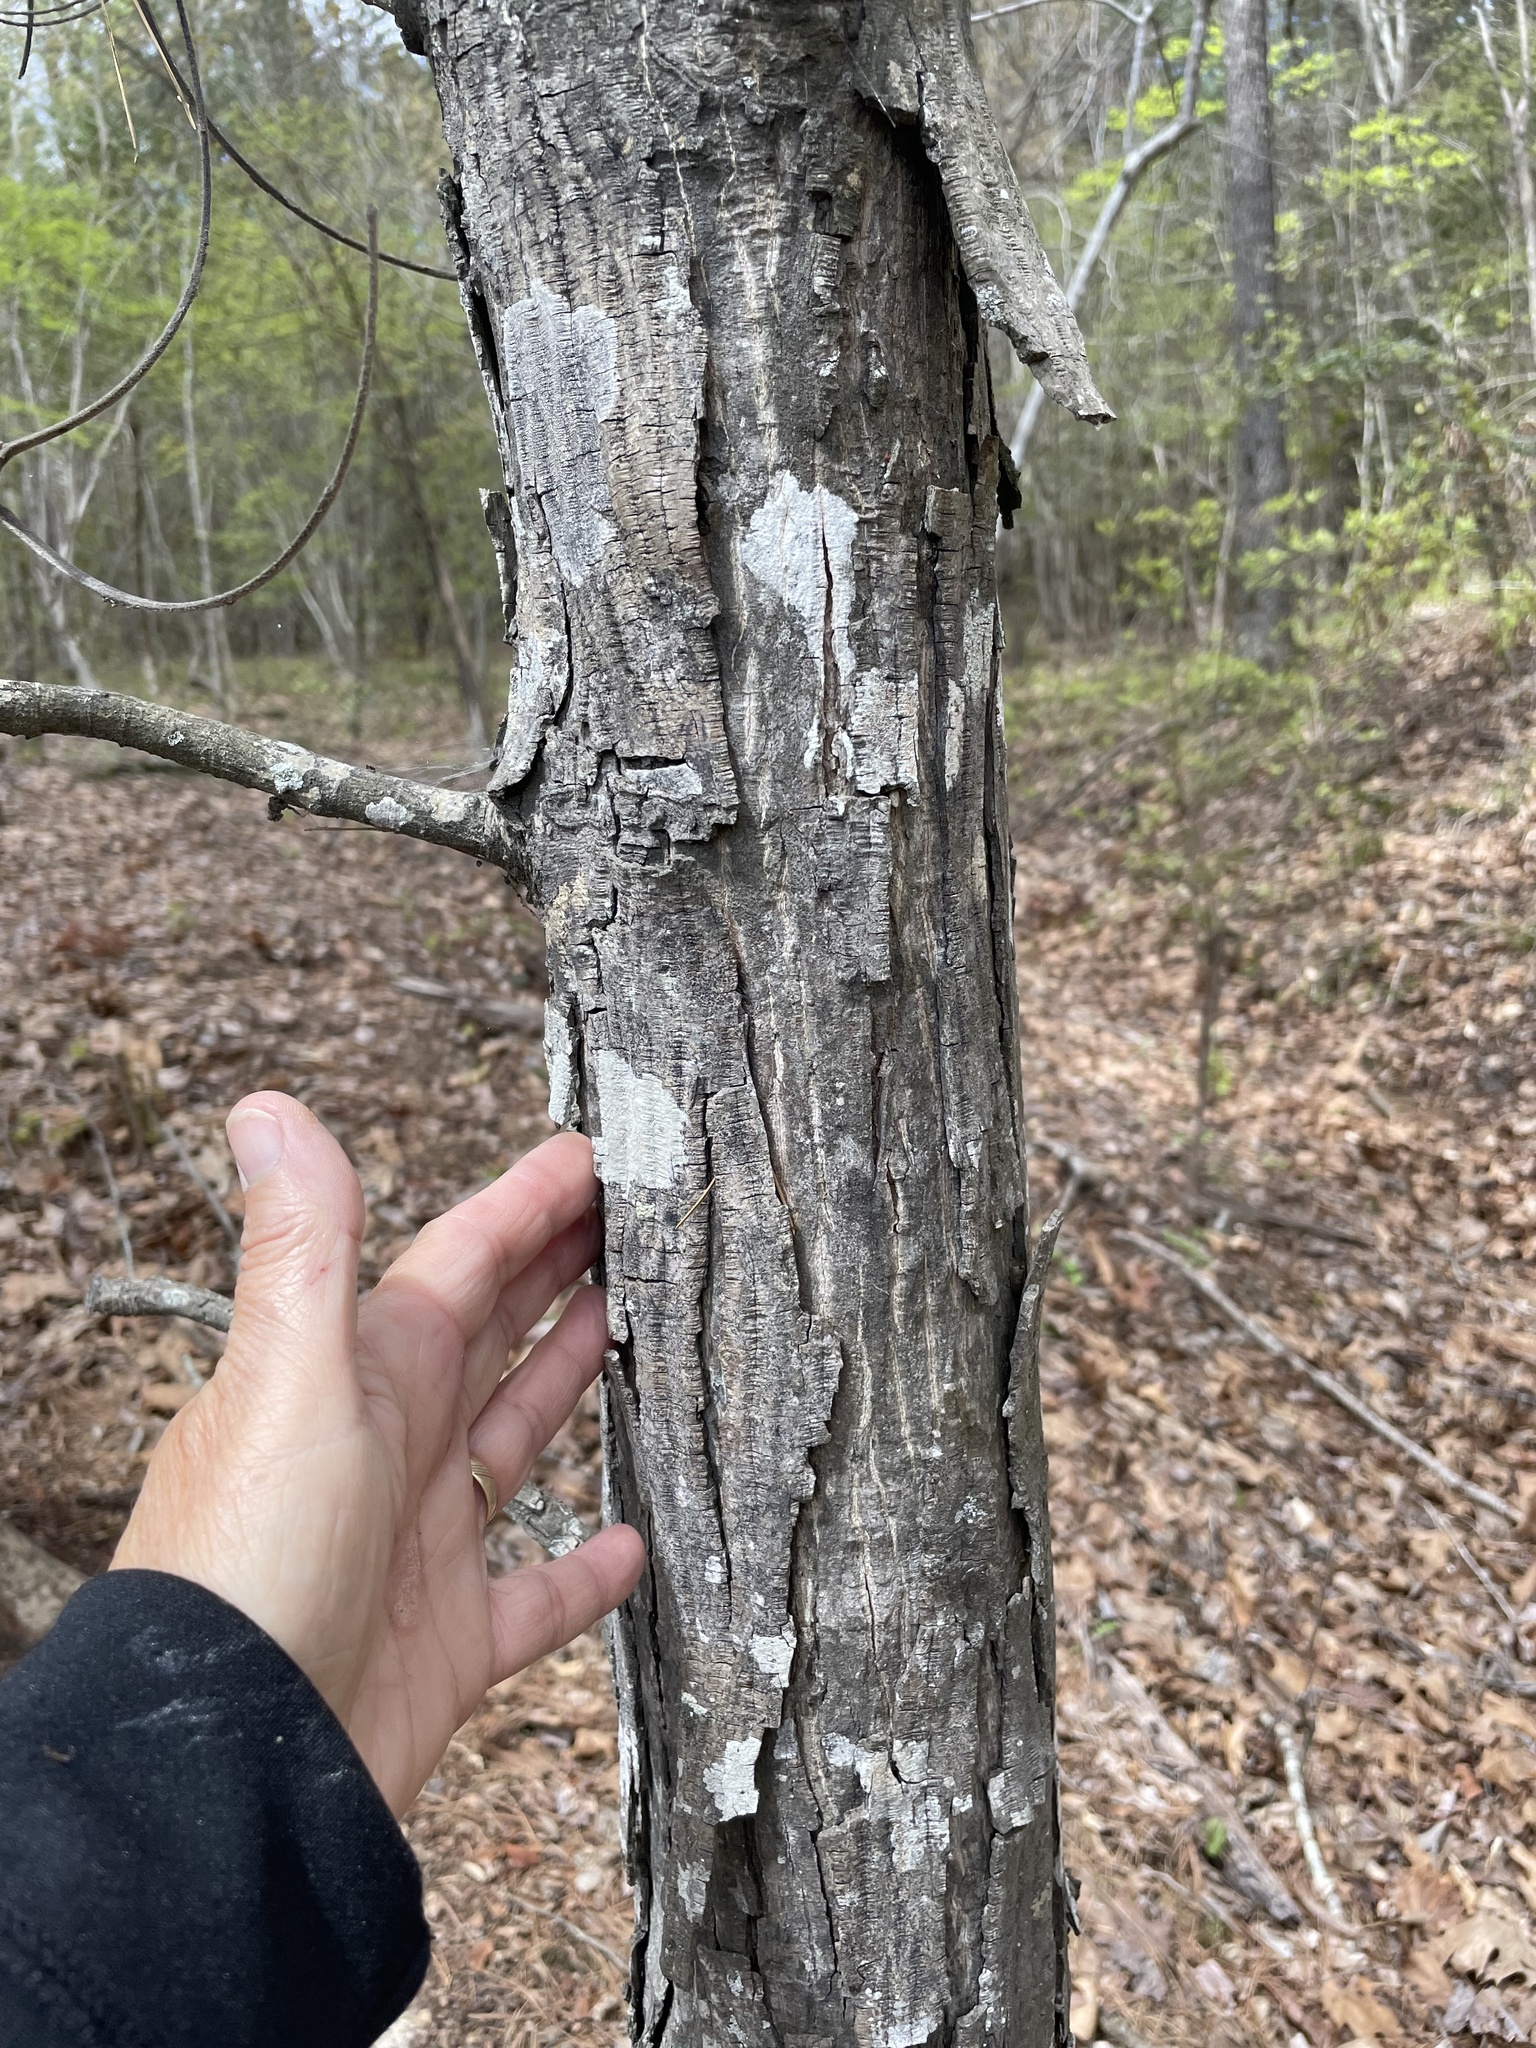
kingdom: Plantae
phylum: Tracheophyta
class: Magnoliopsida
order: Fagales
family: Juglandaceae
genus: Carya
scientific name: Carya ovata
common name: Shagbark hickory
